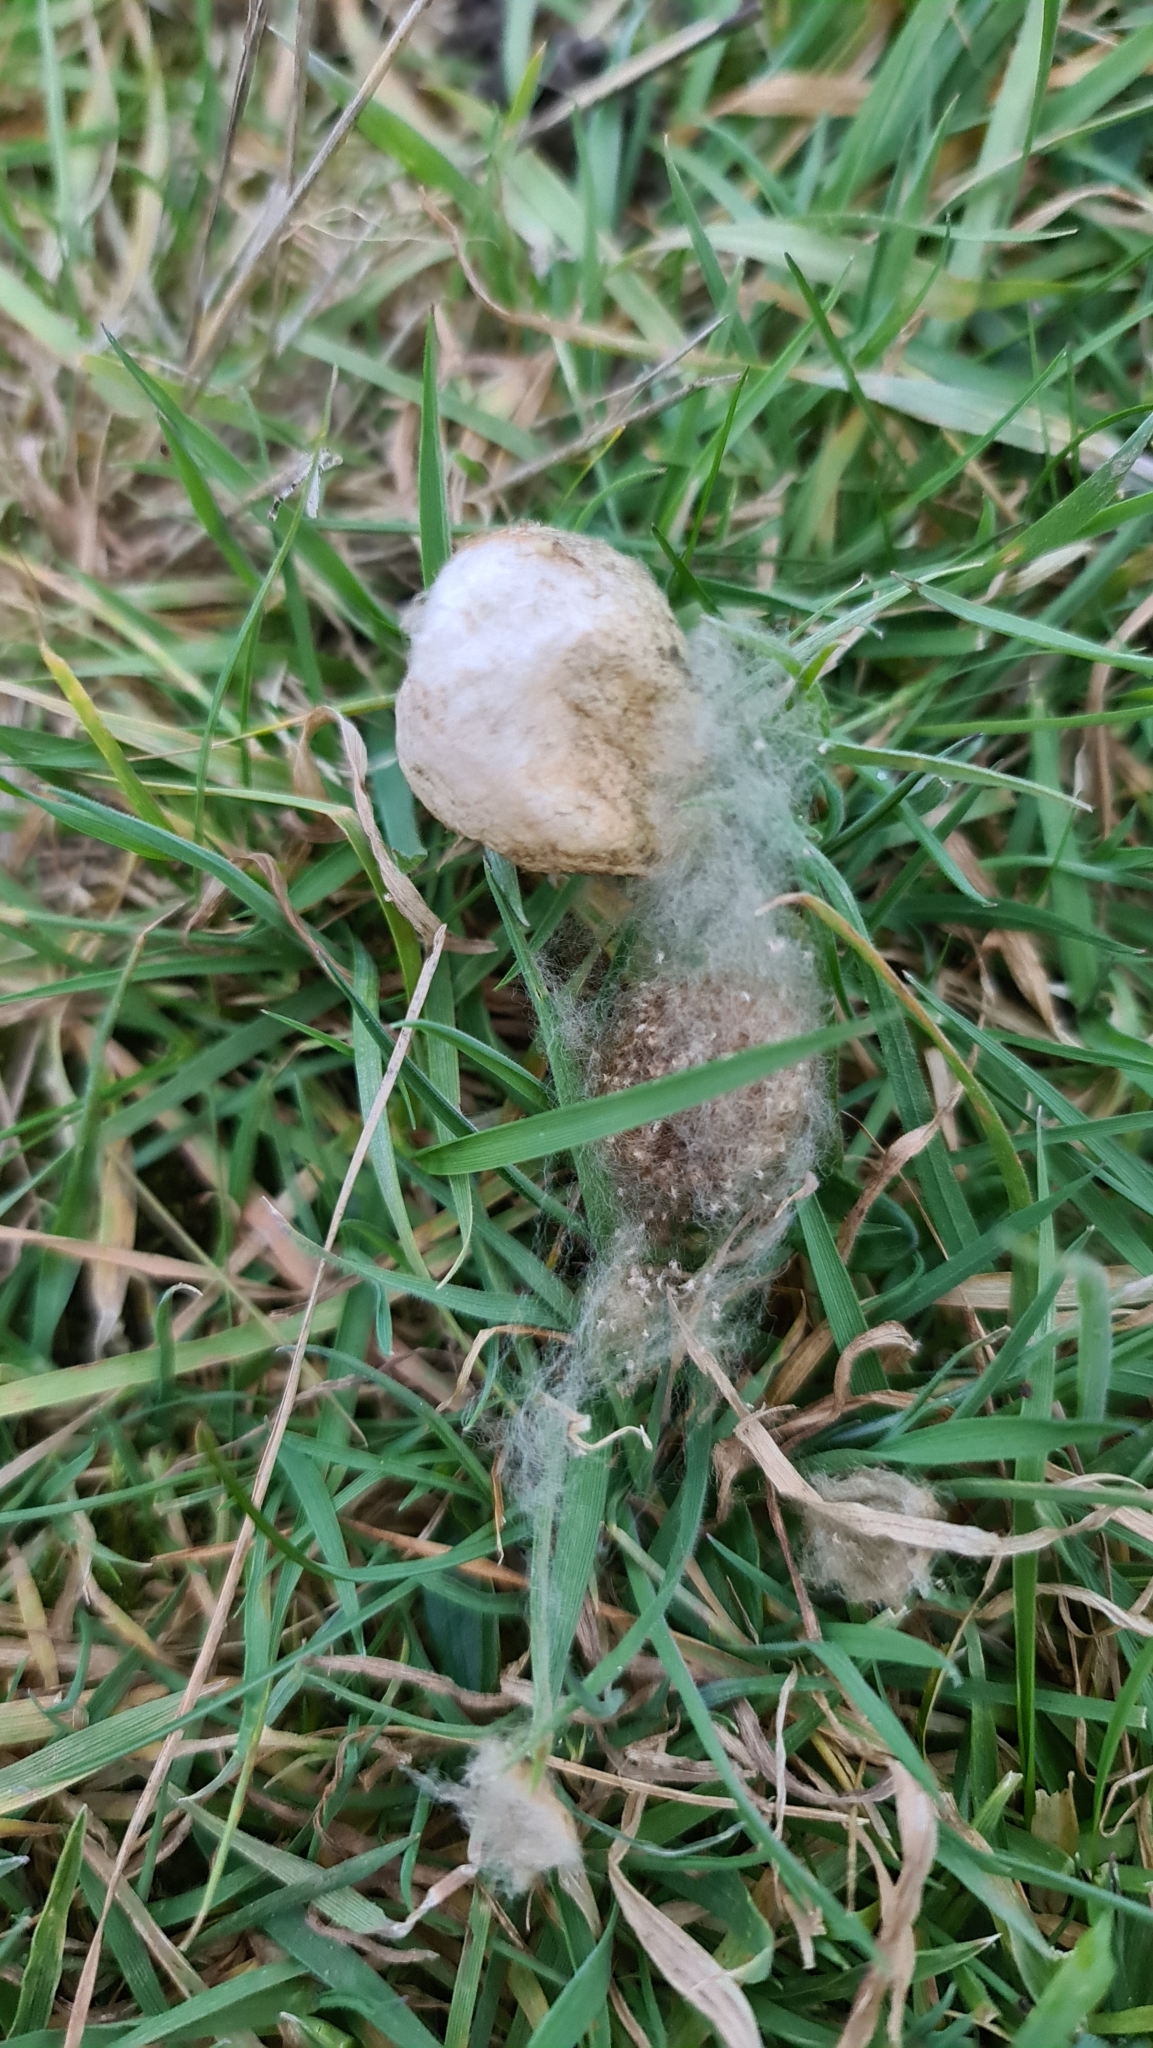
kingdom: Animalia
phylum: Arthropoda
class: Arachnida
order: Araneae
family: Araneidae
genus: Argiope
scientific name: Argiope bruennichi
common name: Wasp spider
